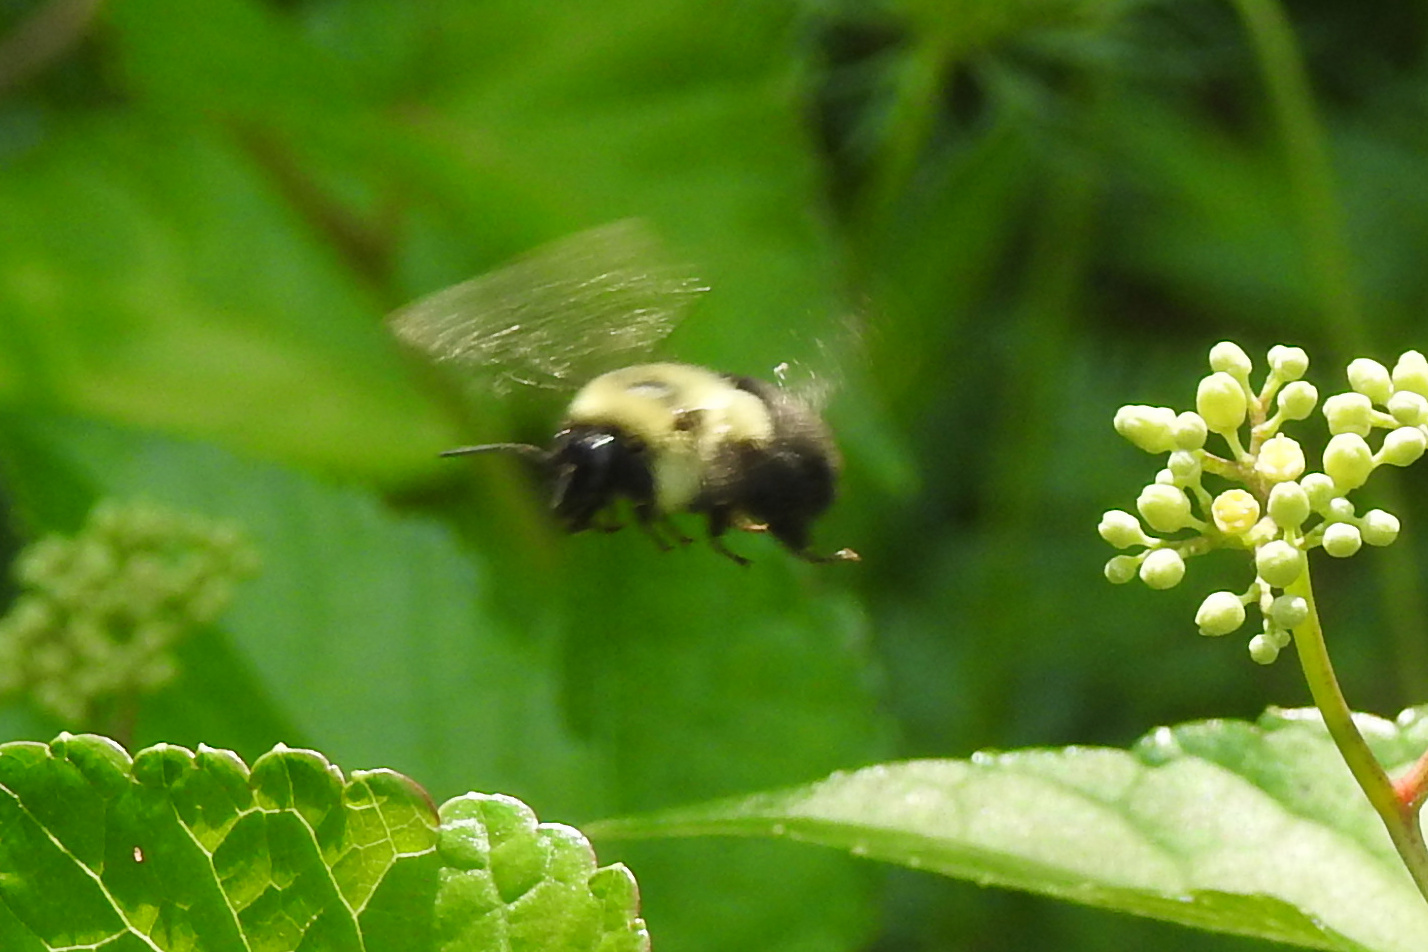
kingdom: Animalia
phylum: Arthropoda
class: Insecta
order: Hymenoptera
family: Apidae
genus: Bombus
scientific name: Bombus impatiens
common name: Common eastern bumble bee
